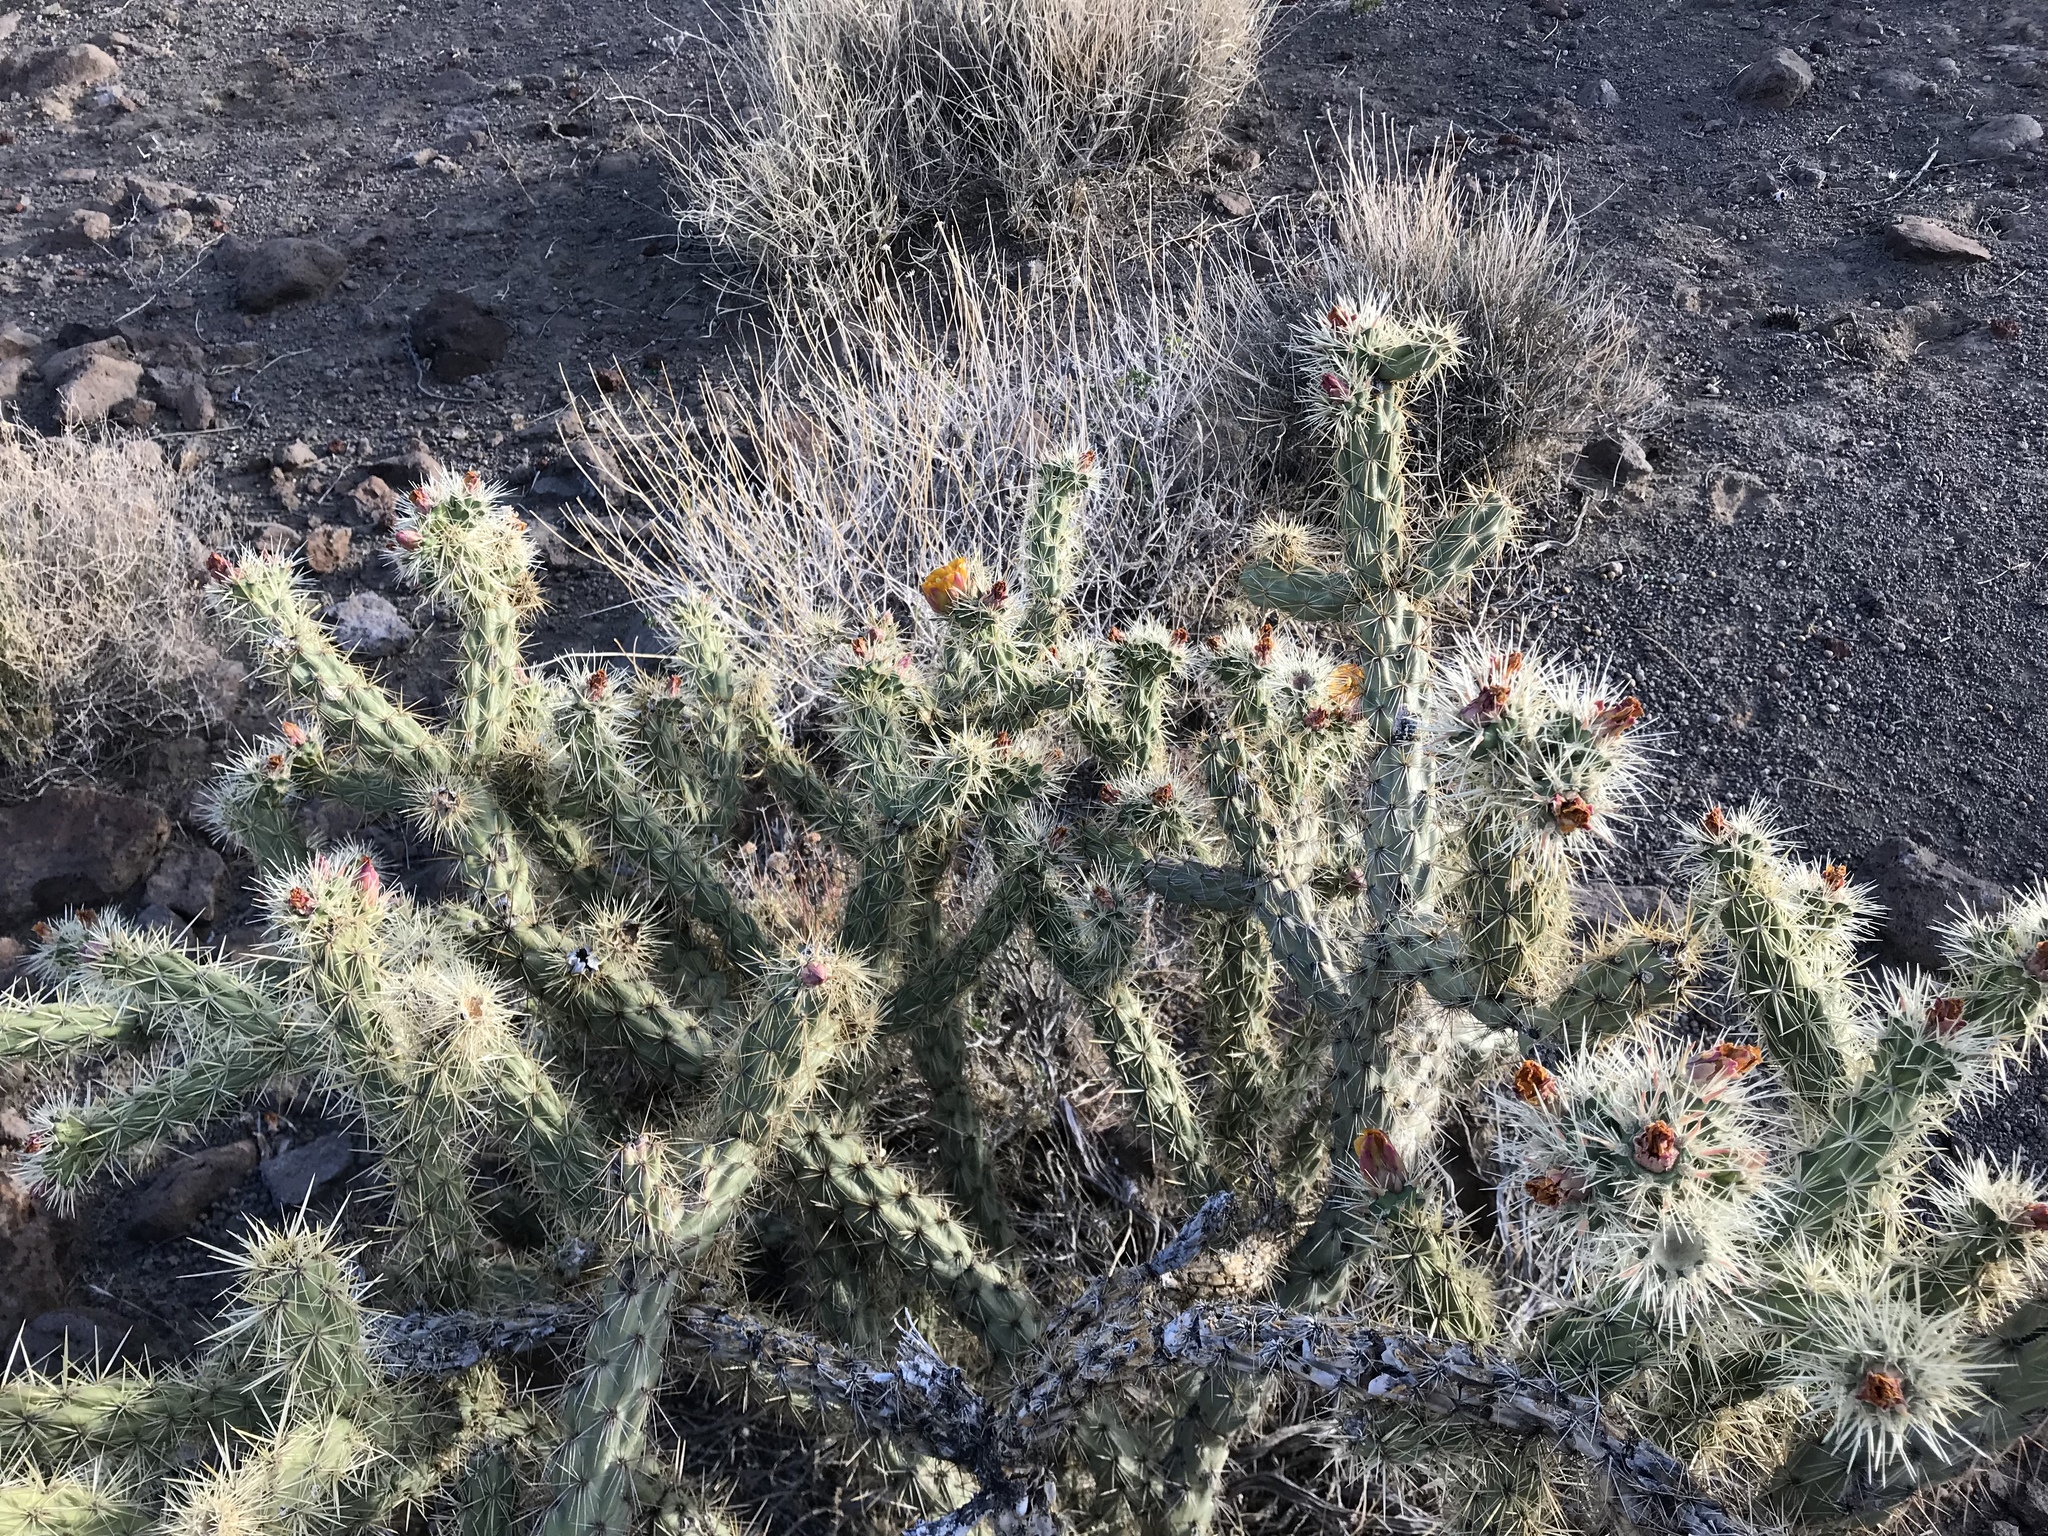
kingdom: Plantae
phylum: Tracheophyta
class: Magnoliopsida
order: Caryophyllales
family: Cactaceae
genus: Cylindropuntia
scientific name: Cylindropuntia acanthocarpa
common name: Buckhorn cholla
